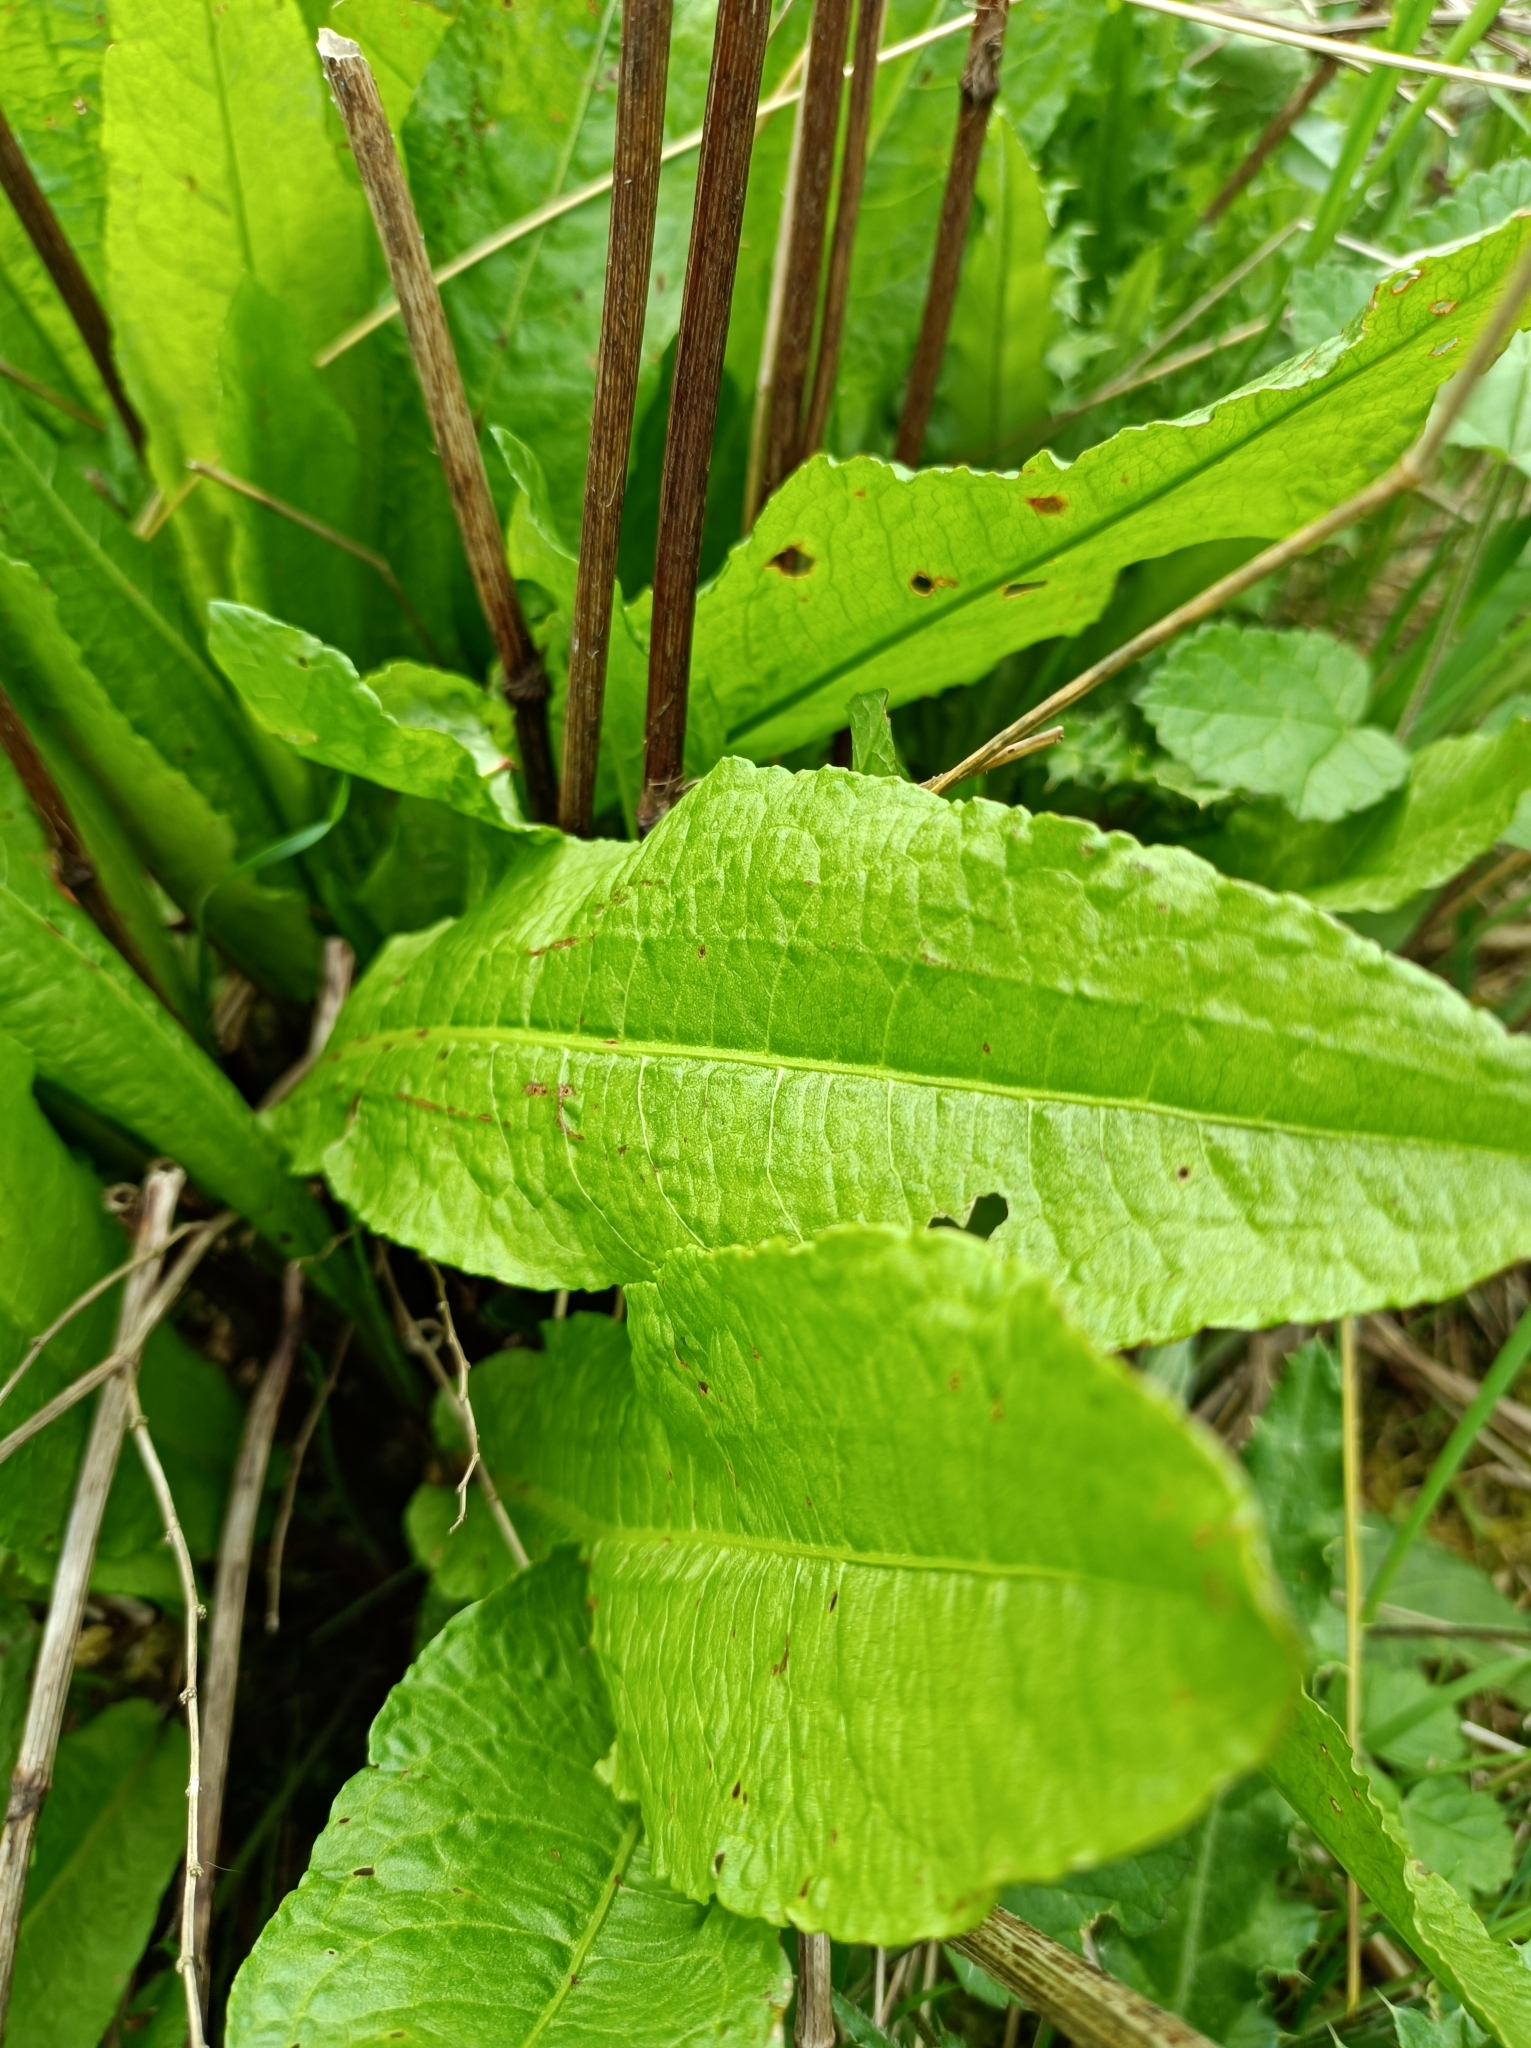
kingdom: Plantae
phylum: Tracheophyta
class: Magnoliopsida
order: Caryophyllales
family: Polygonaceae
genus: Rumex
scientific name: Rumex obtusifolius
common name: Bitter dock
